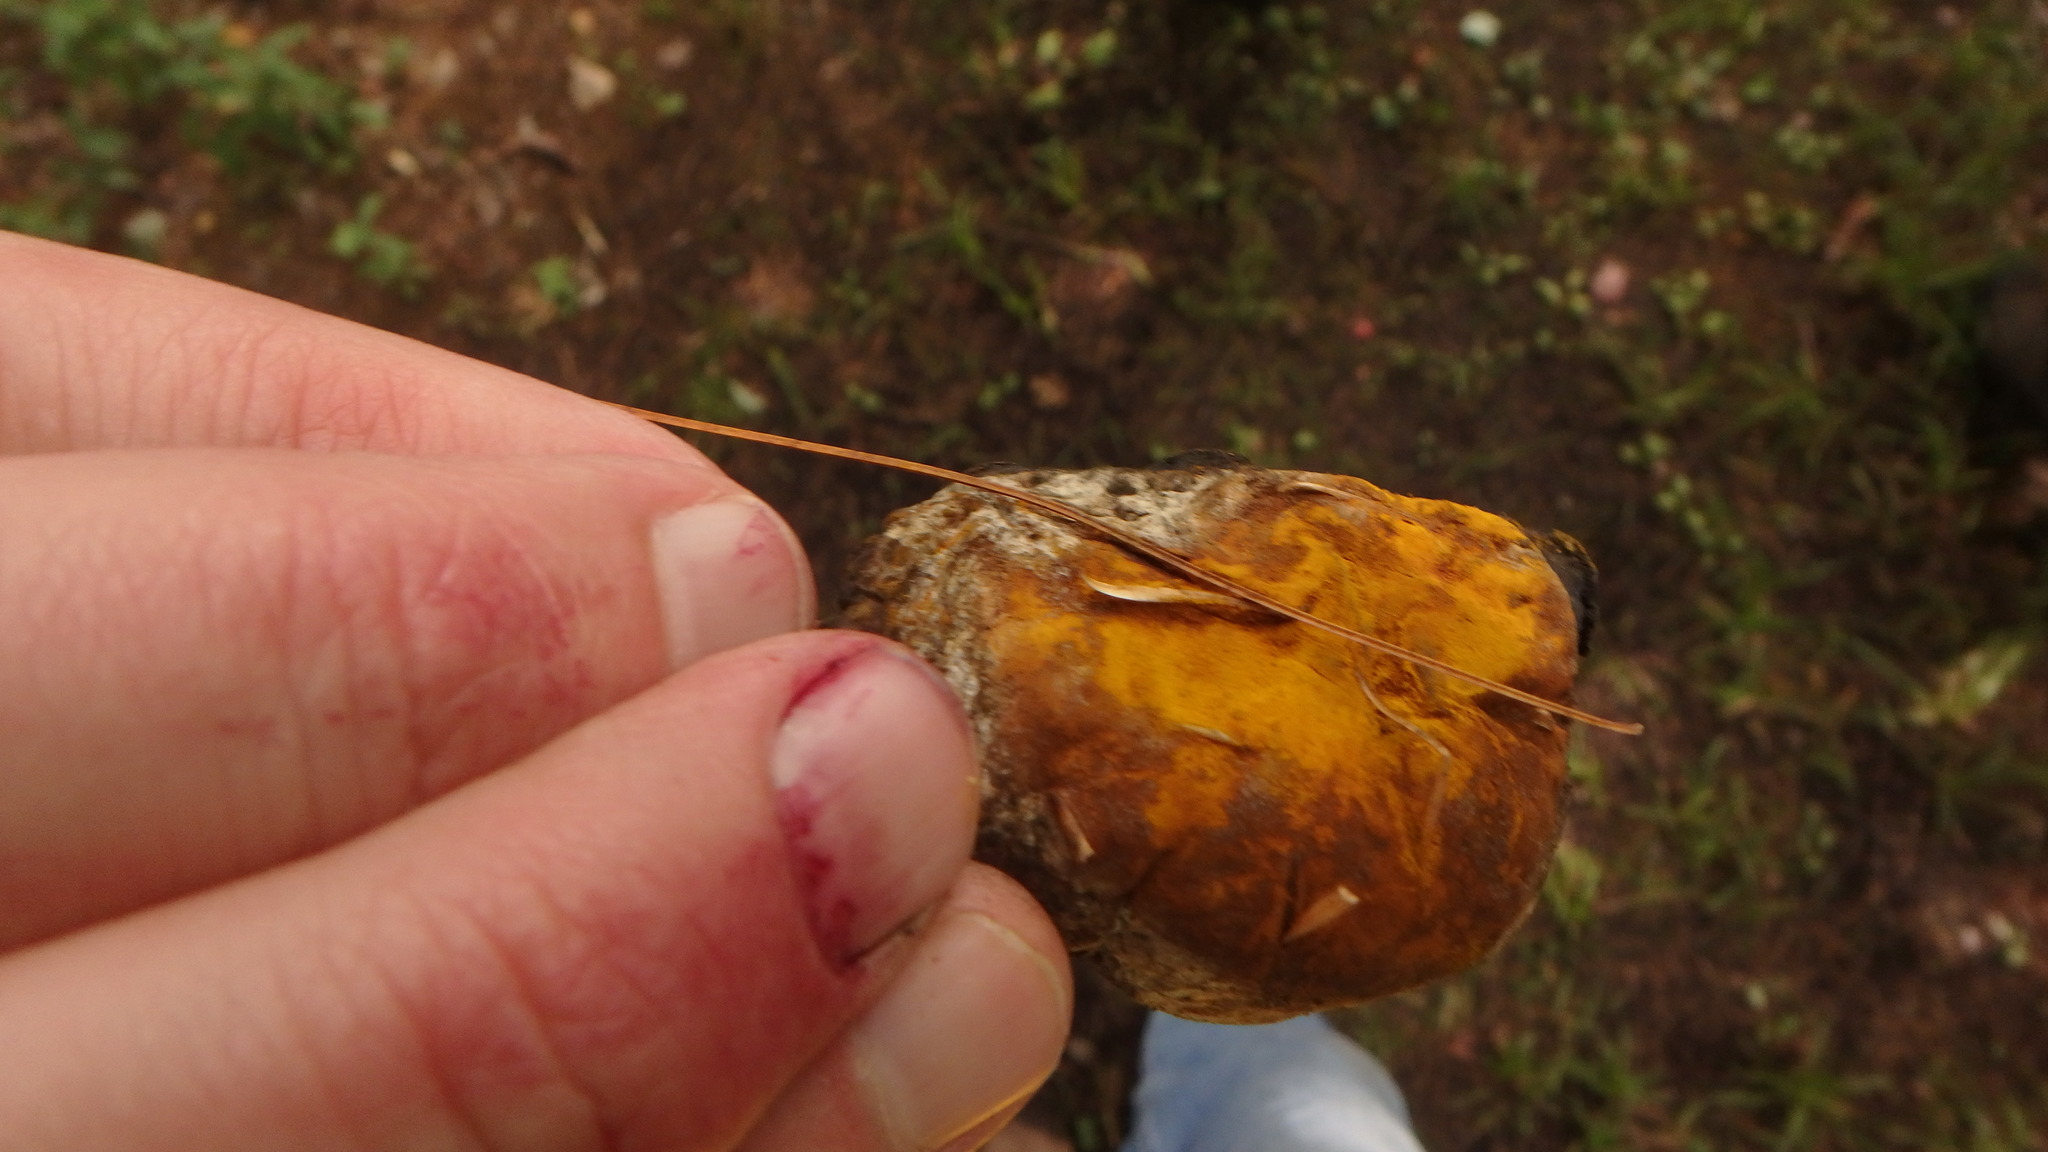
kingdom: Fungi
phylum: Ascomycota
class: Sordariomycetes
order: Hypocreales
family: Hypocreaceae
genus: Hypomyces
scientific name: Hypomyces chrysospermus
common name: Bolete mould
